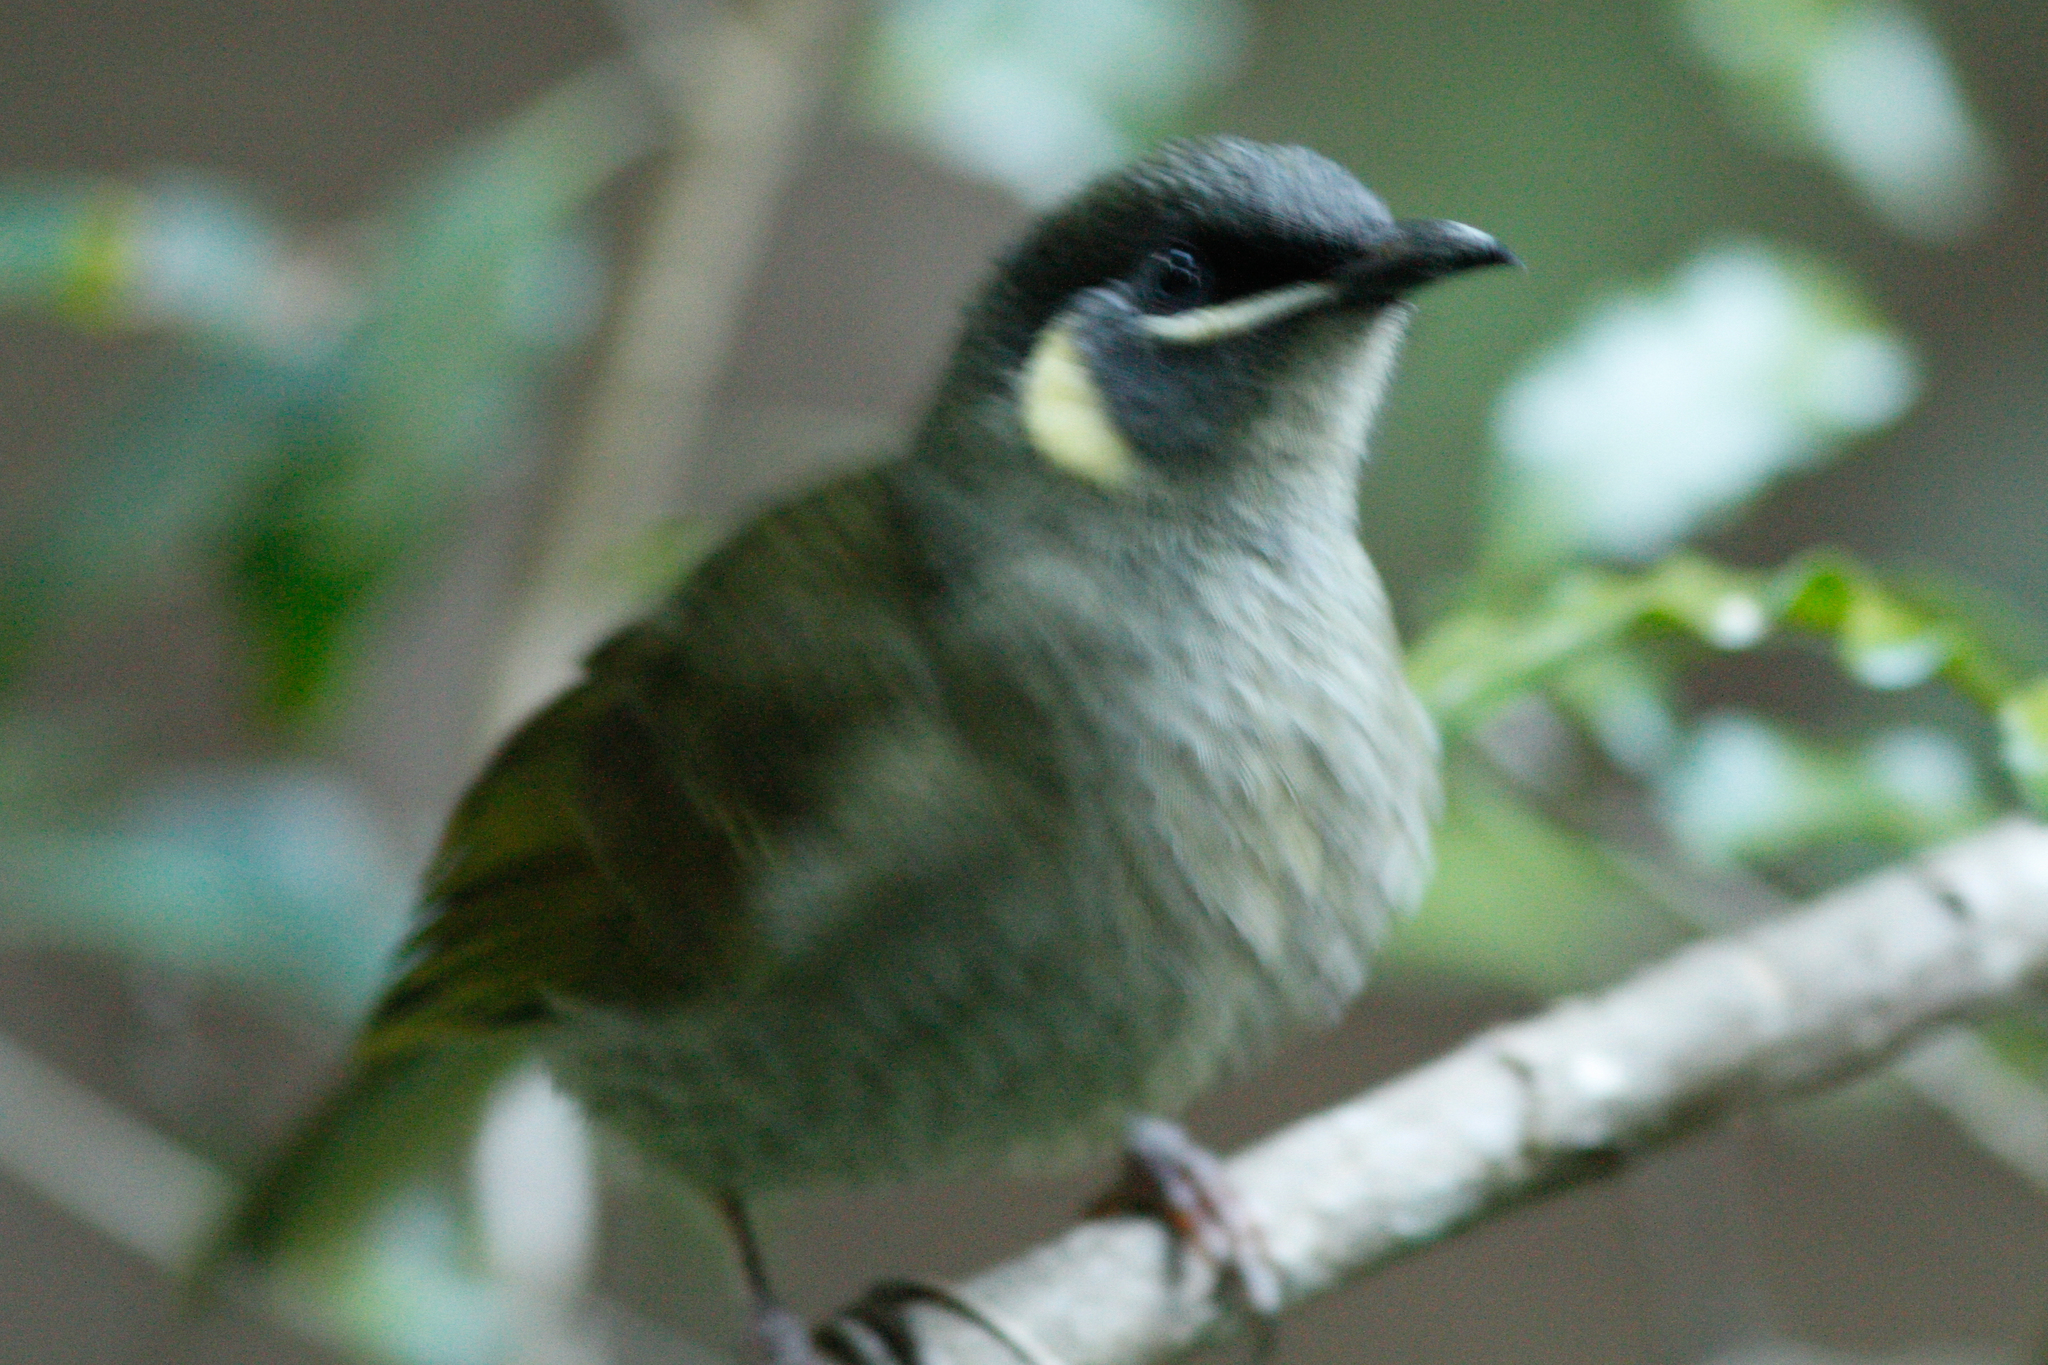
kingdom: Animalia
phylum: Chordata
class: Aves
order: Passeriformes
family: Meliphagidae
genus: Meliphaga
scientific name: Meliphaga lewinii
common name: Lewin's honeyeater
